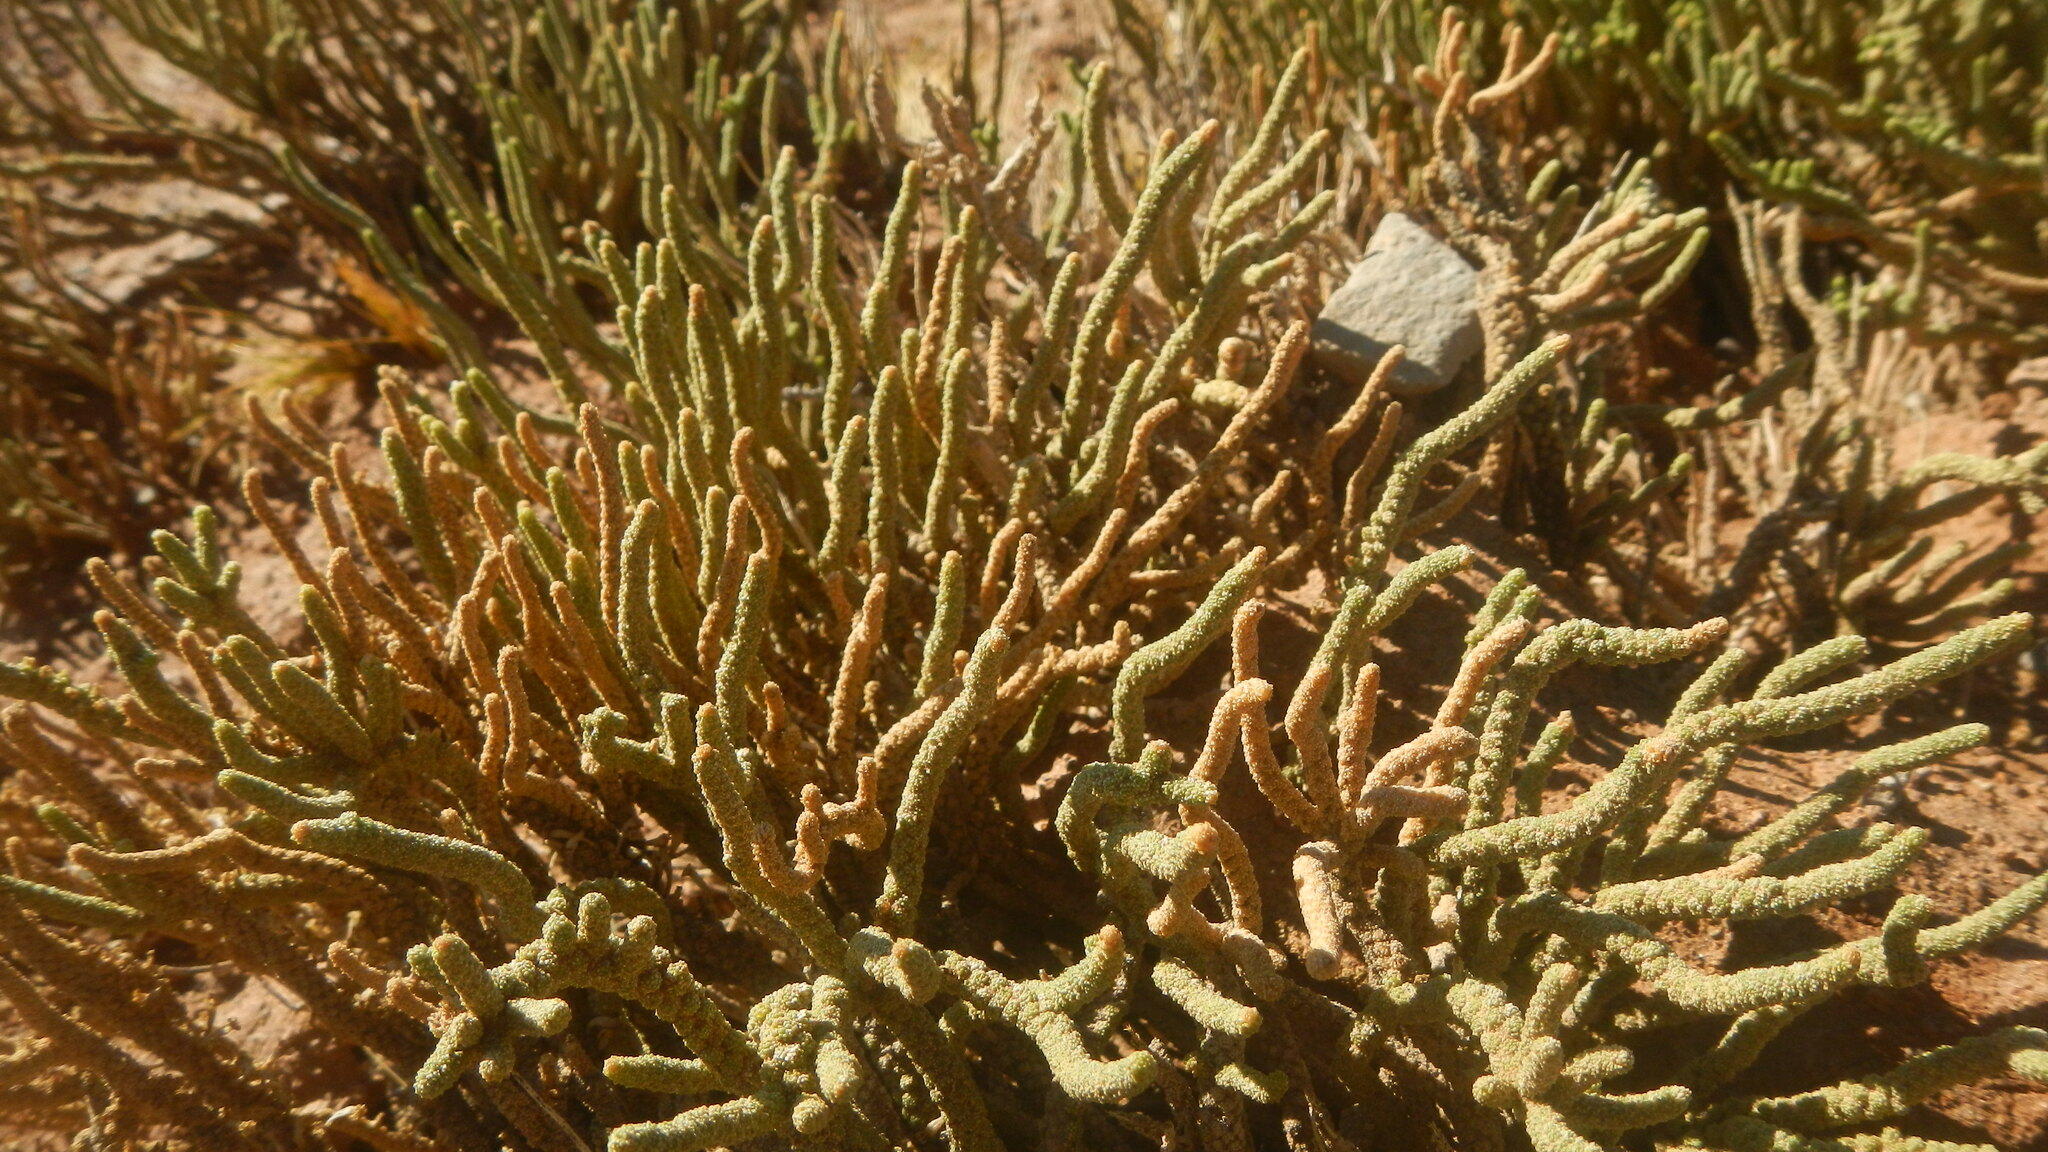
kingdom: Plantae
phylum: Tracheophyta
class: Magnoliopsida
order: Solanales
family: Solanaceae
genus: Fabiana
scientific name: Fabiana bryoides
